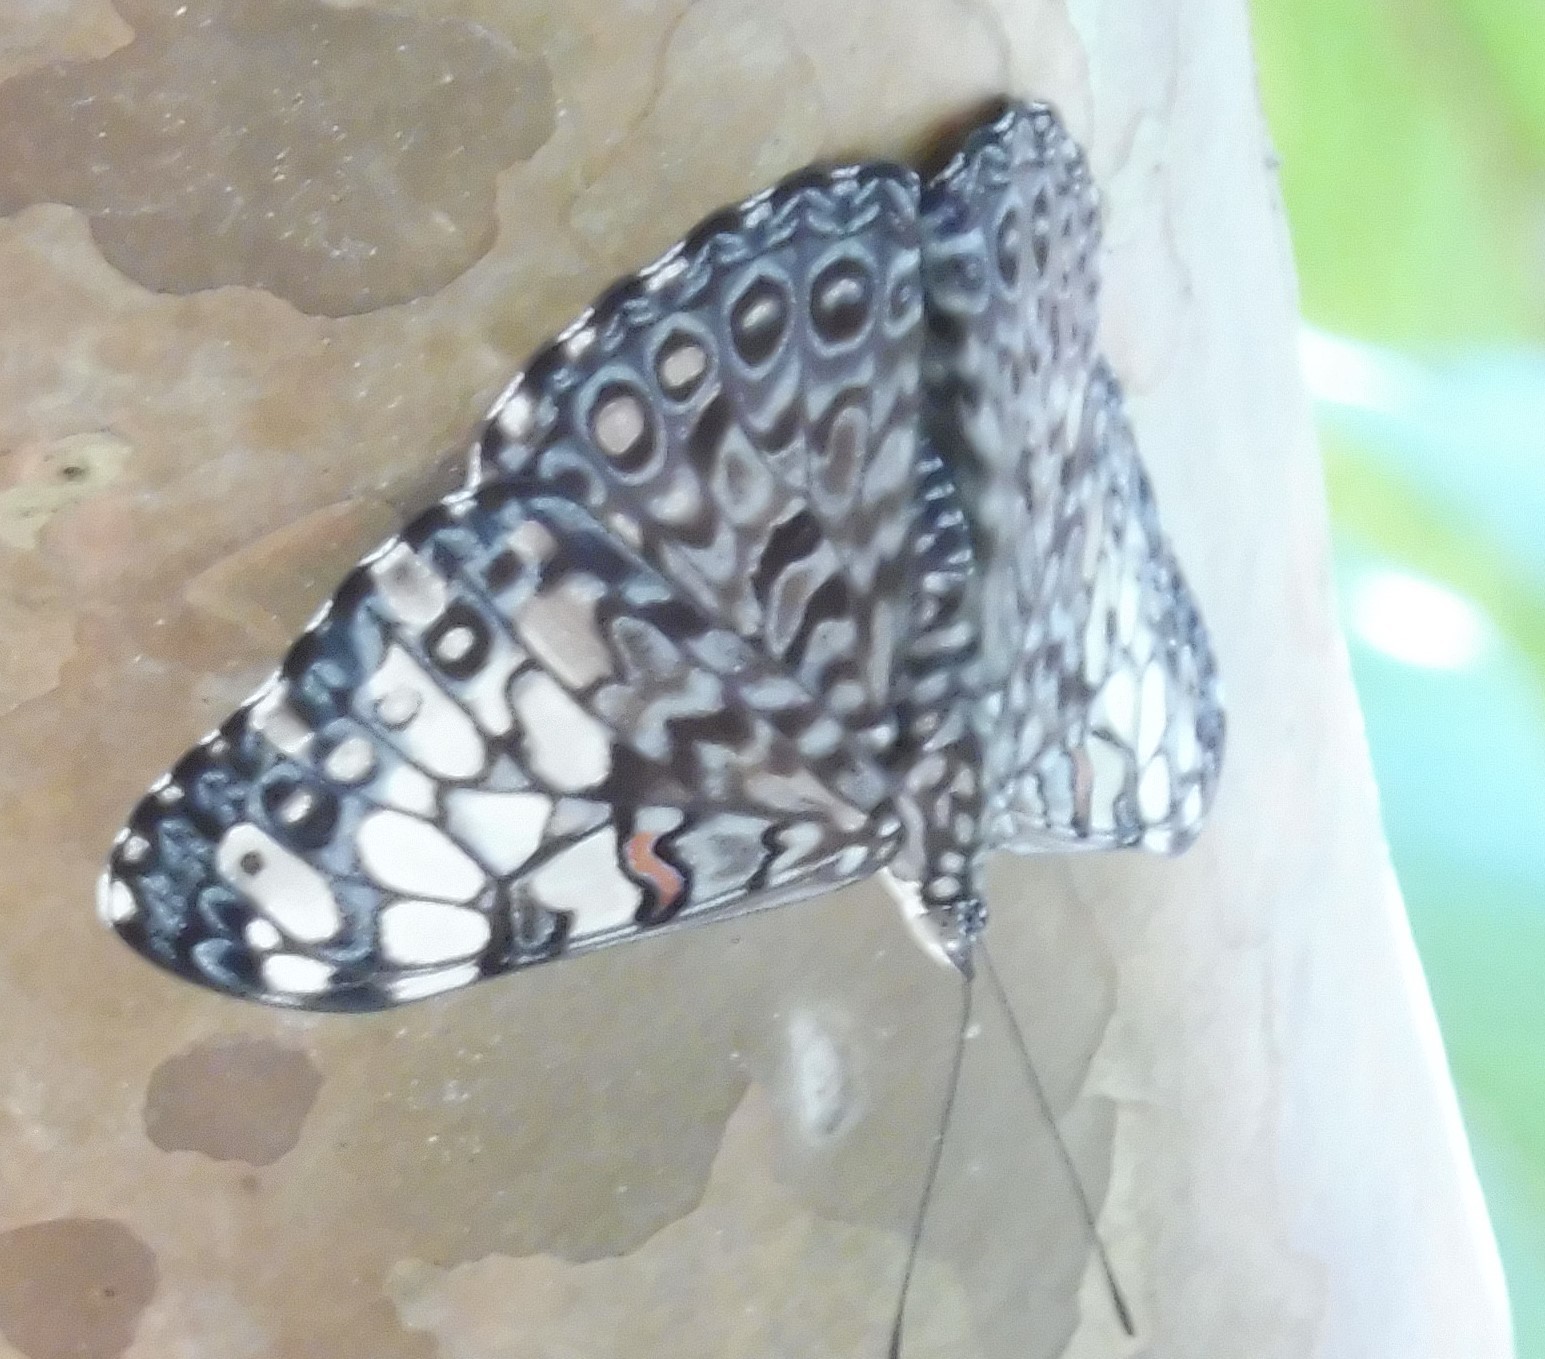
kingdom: Animalia
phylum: Arthropoda
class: Insecta
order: Lepidoptera
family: Nymphalidae
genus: Hamadryas
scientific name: Hamadryas feronia
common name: Variable cracker
